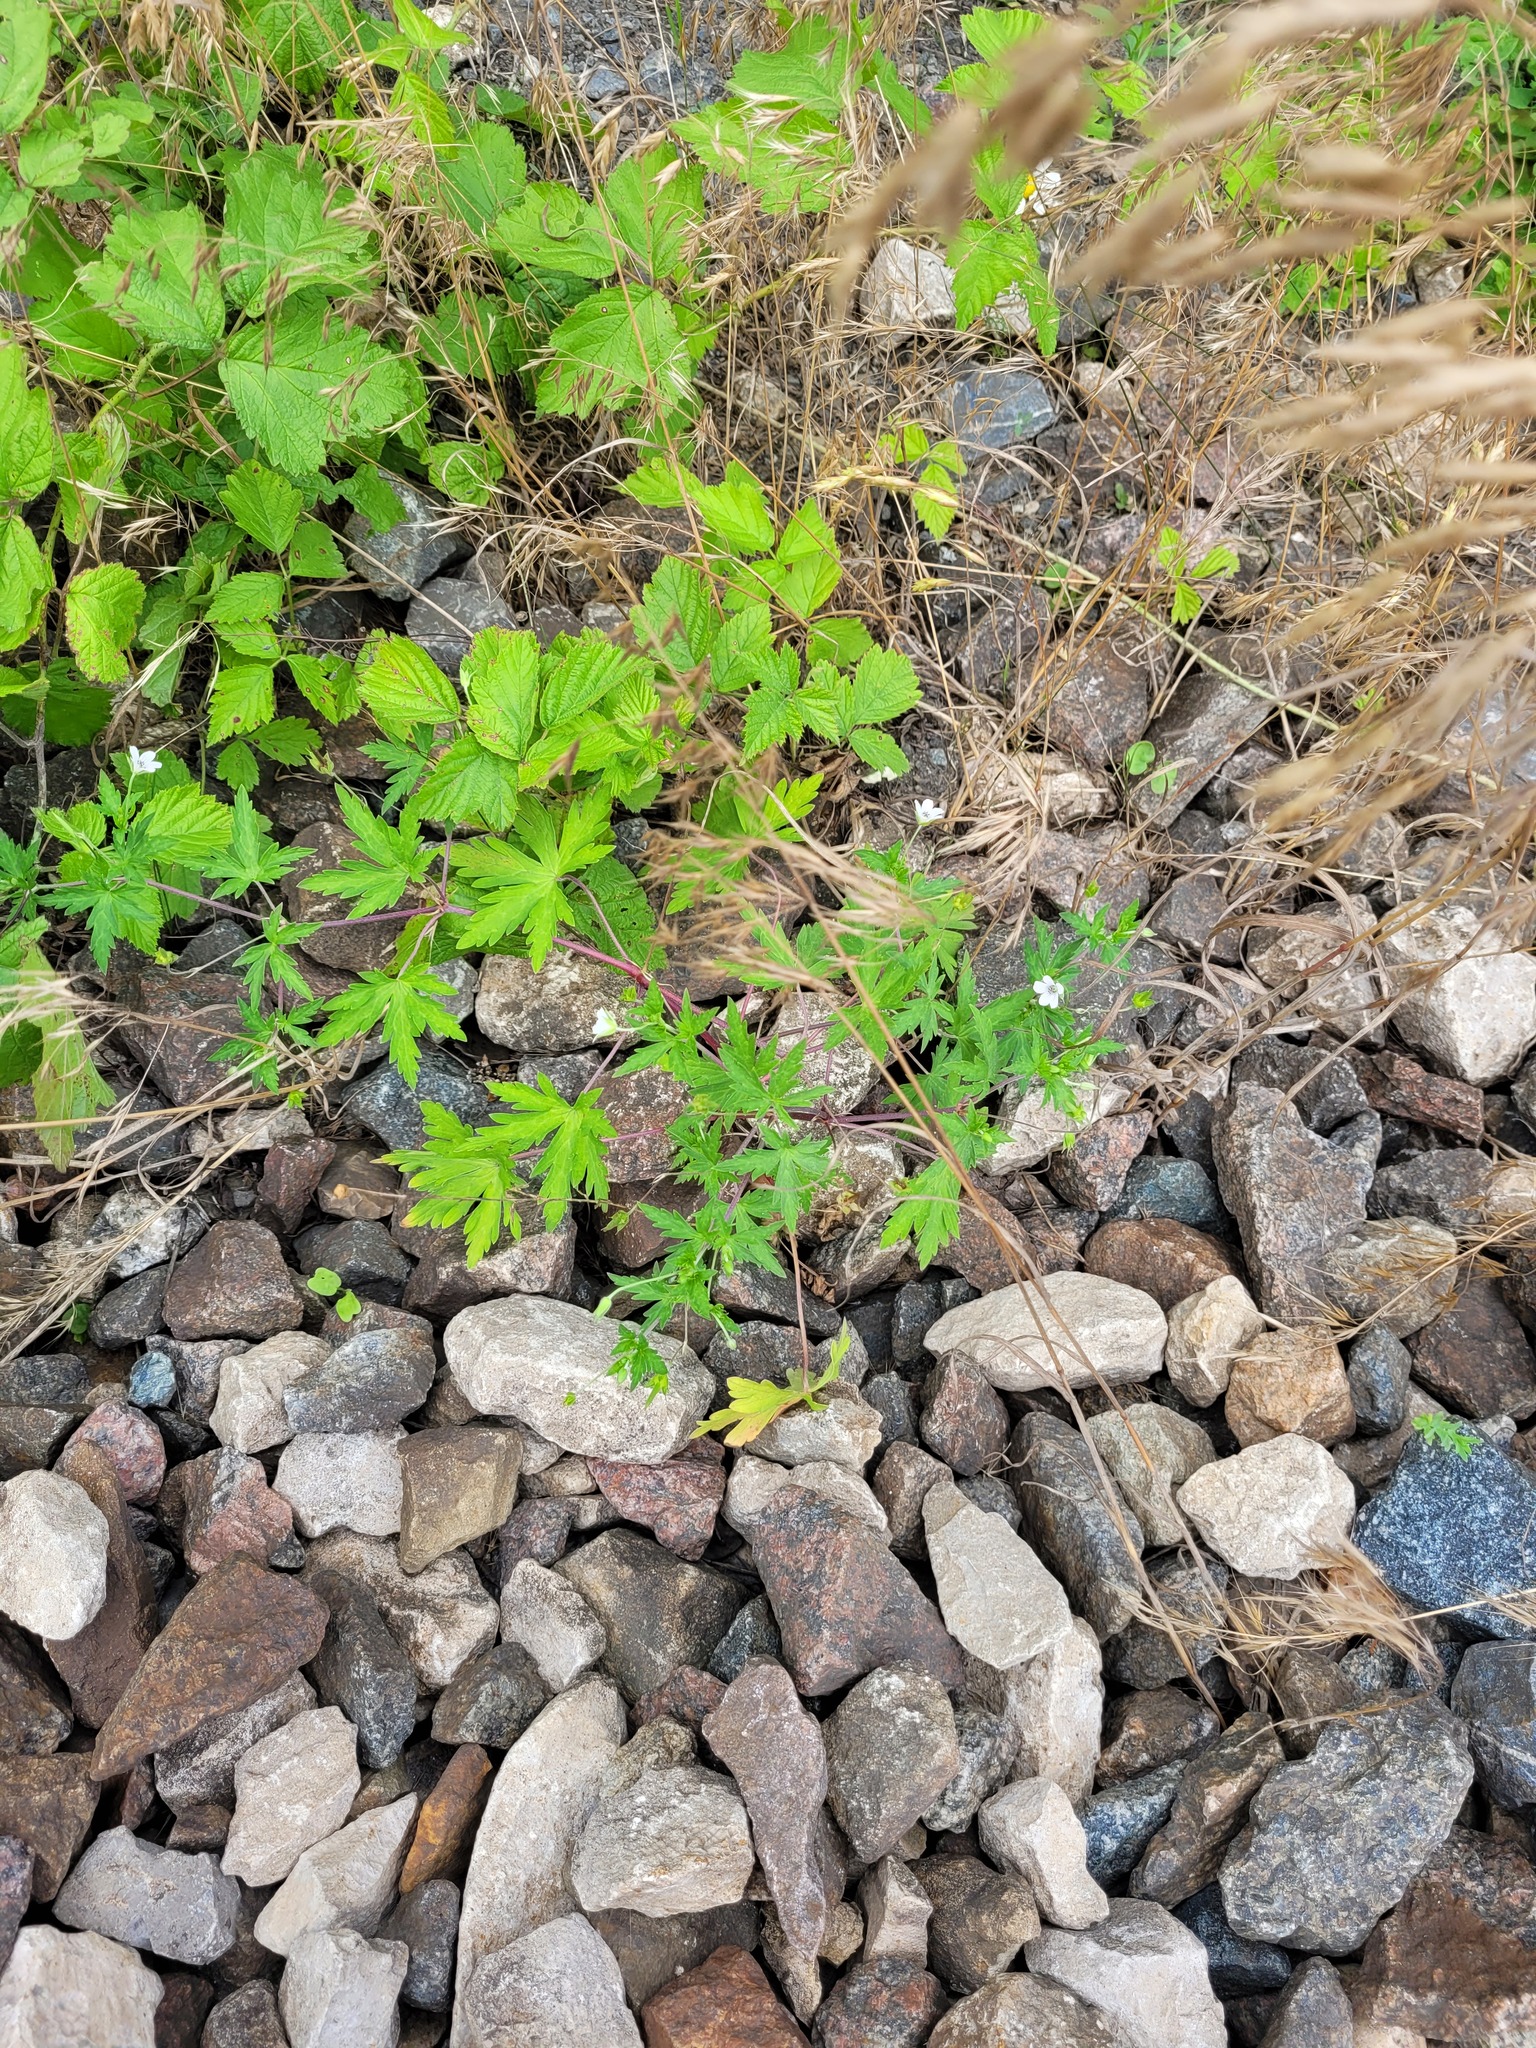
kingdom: Plantae
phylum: Tracheophyta
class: Magnoliopsida
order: Geraniales
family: Geraniaceae
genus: Geranium
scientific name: Geranium sibiricum
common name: Siberian crane's-bill
